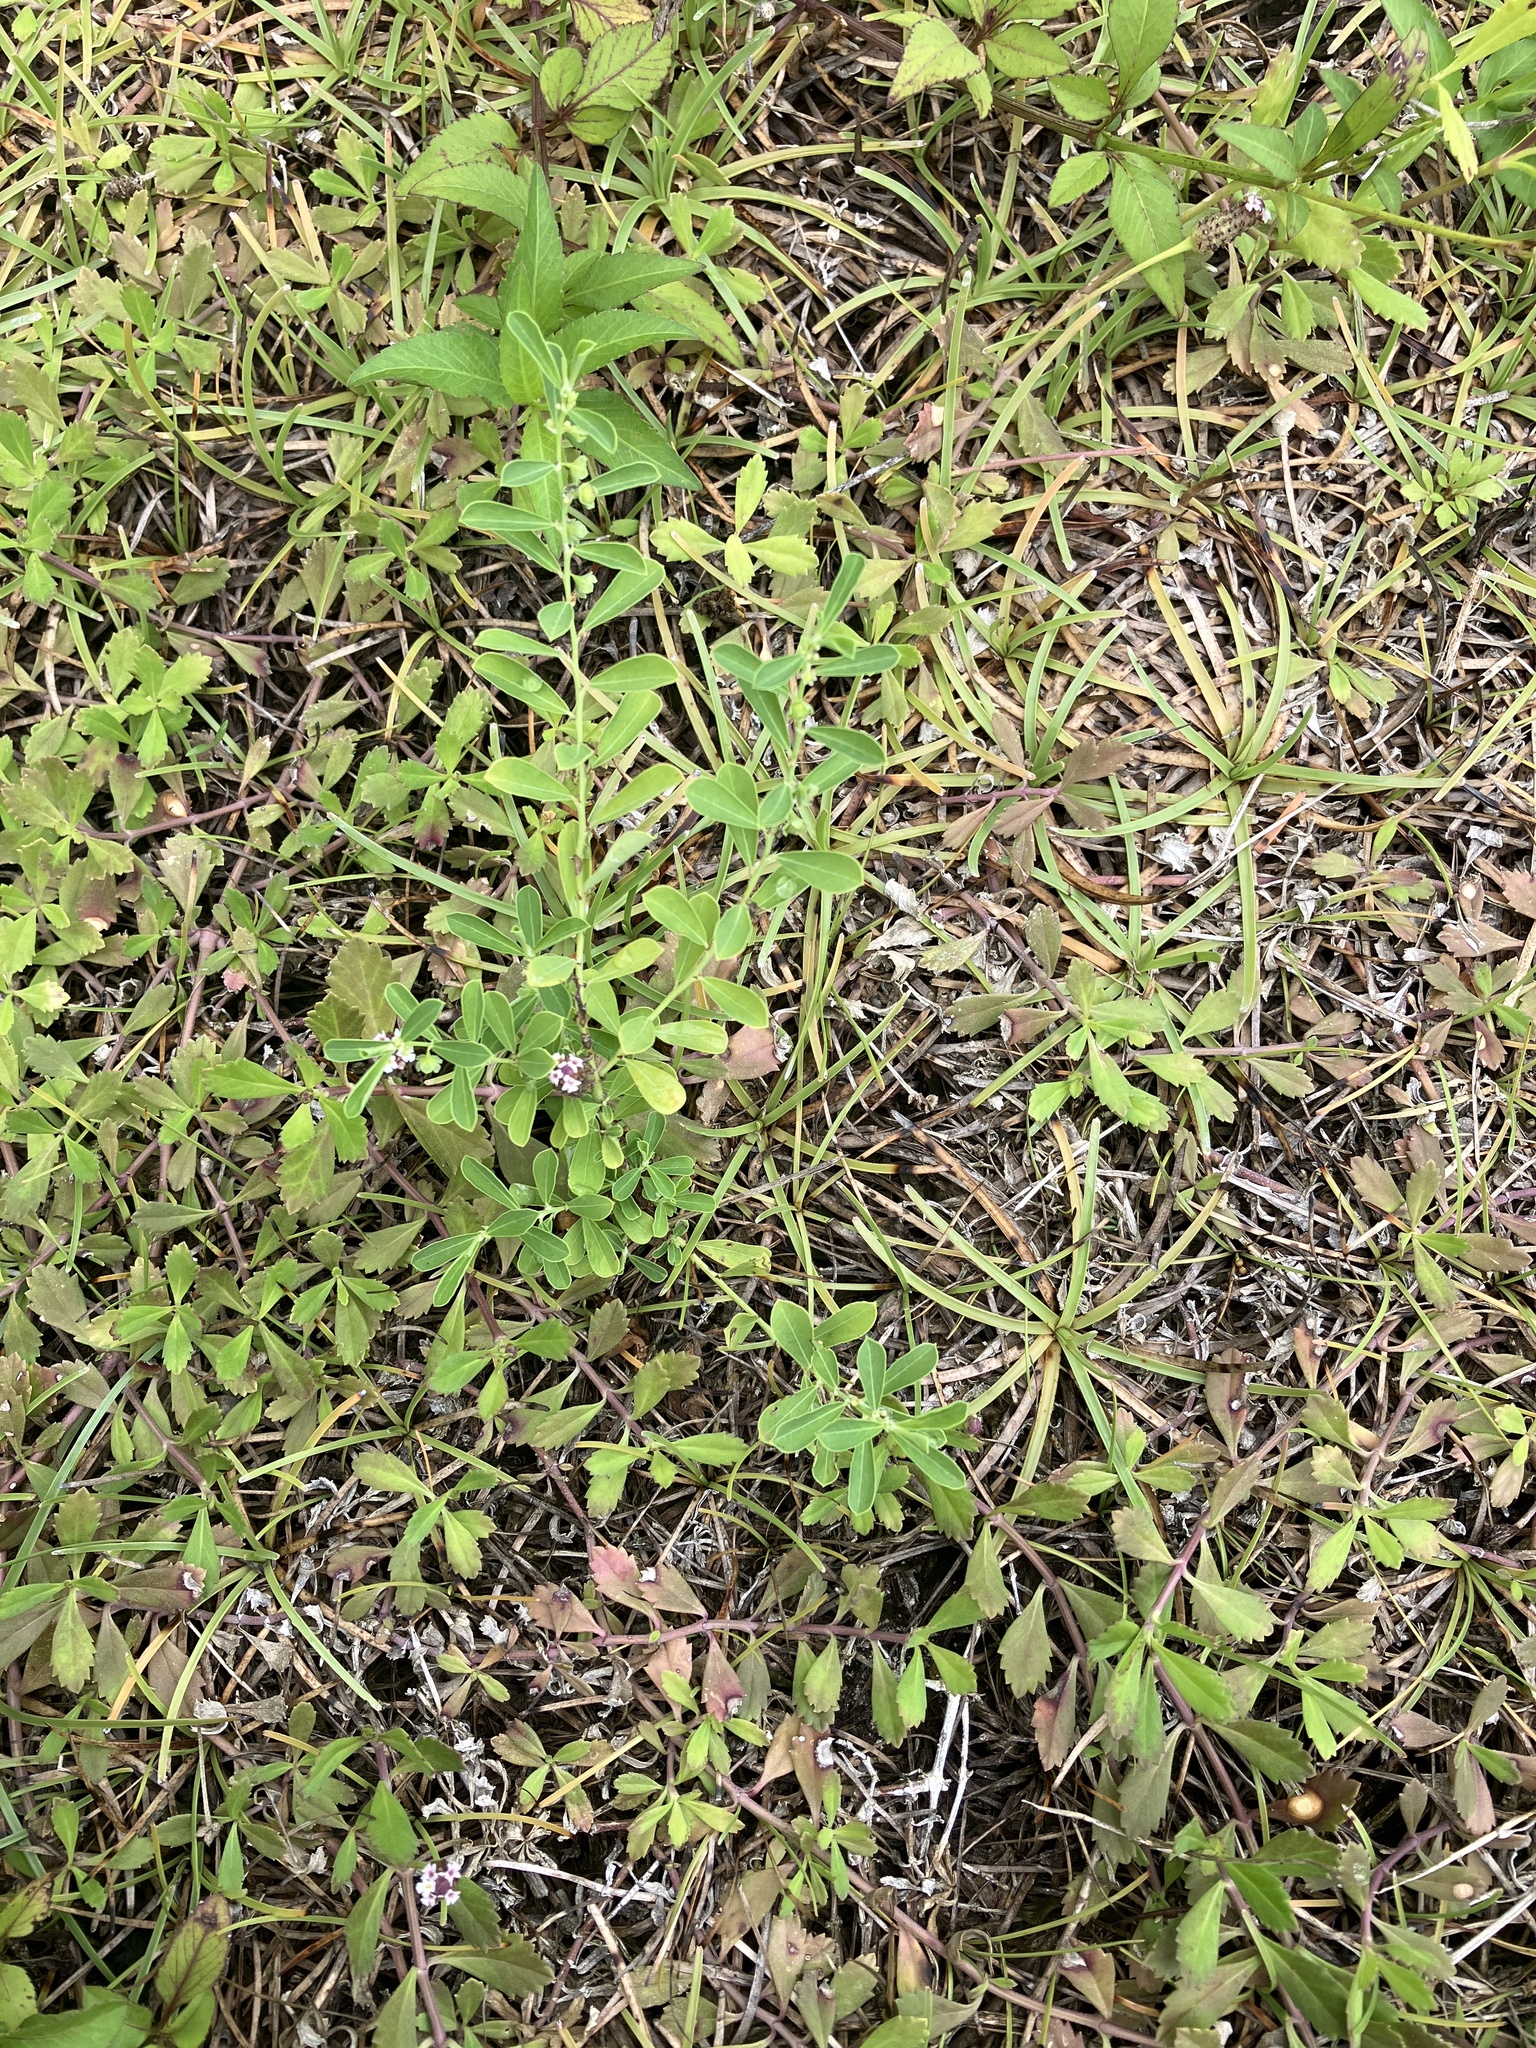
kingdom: Plantae
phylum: Tracheophyta
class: Magnoliopsida
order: Malpighiales
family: Phyllanthaceae
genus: Phyllanthus
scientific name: Phyllanthus polygonoides
